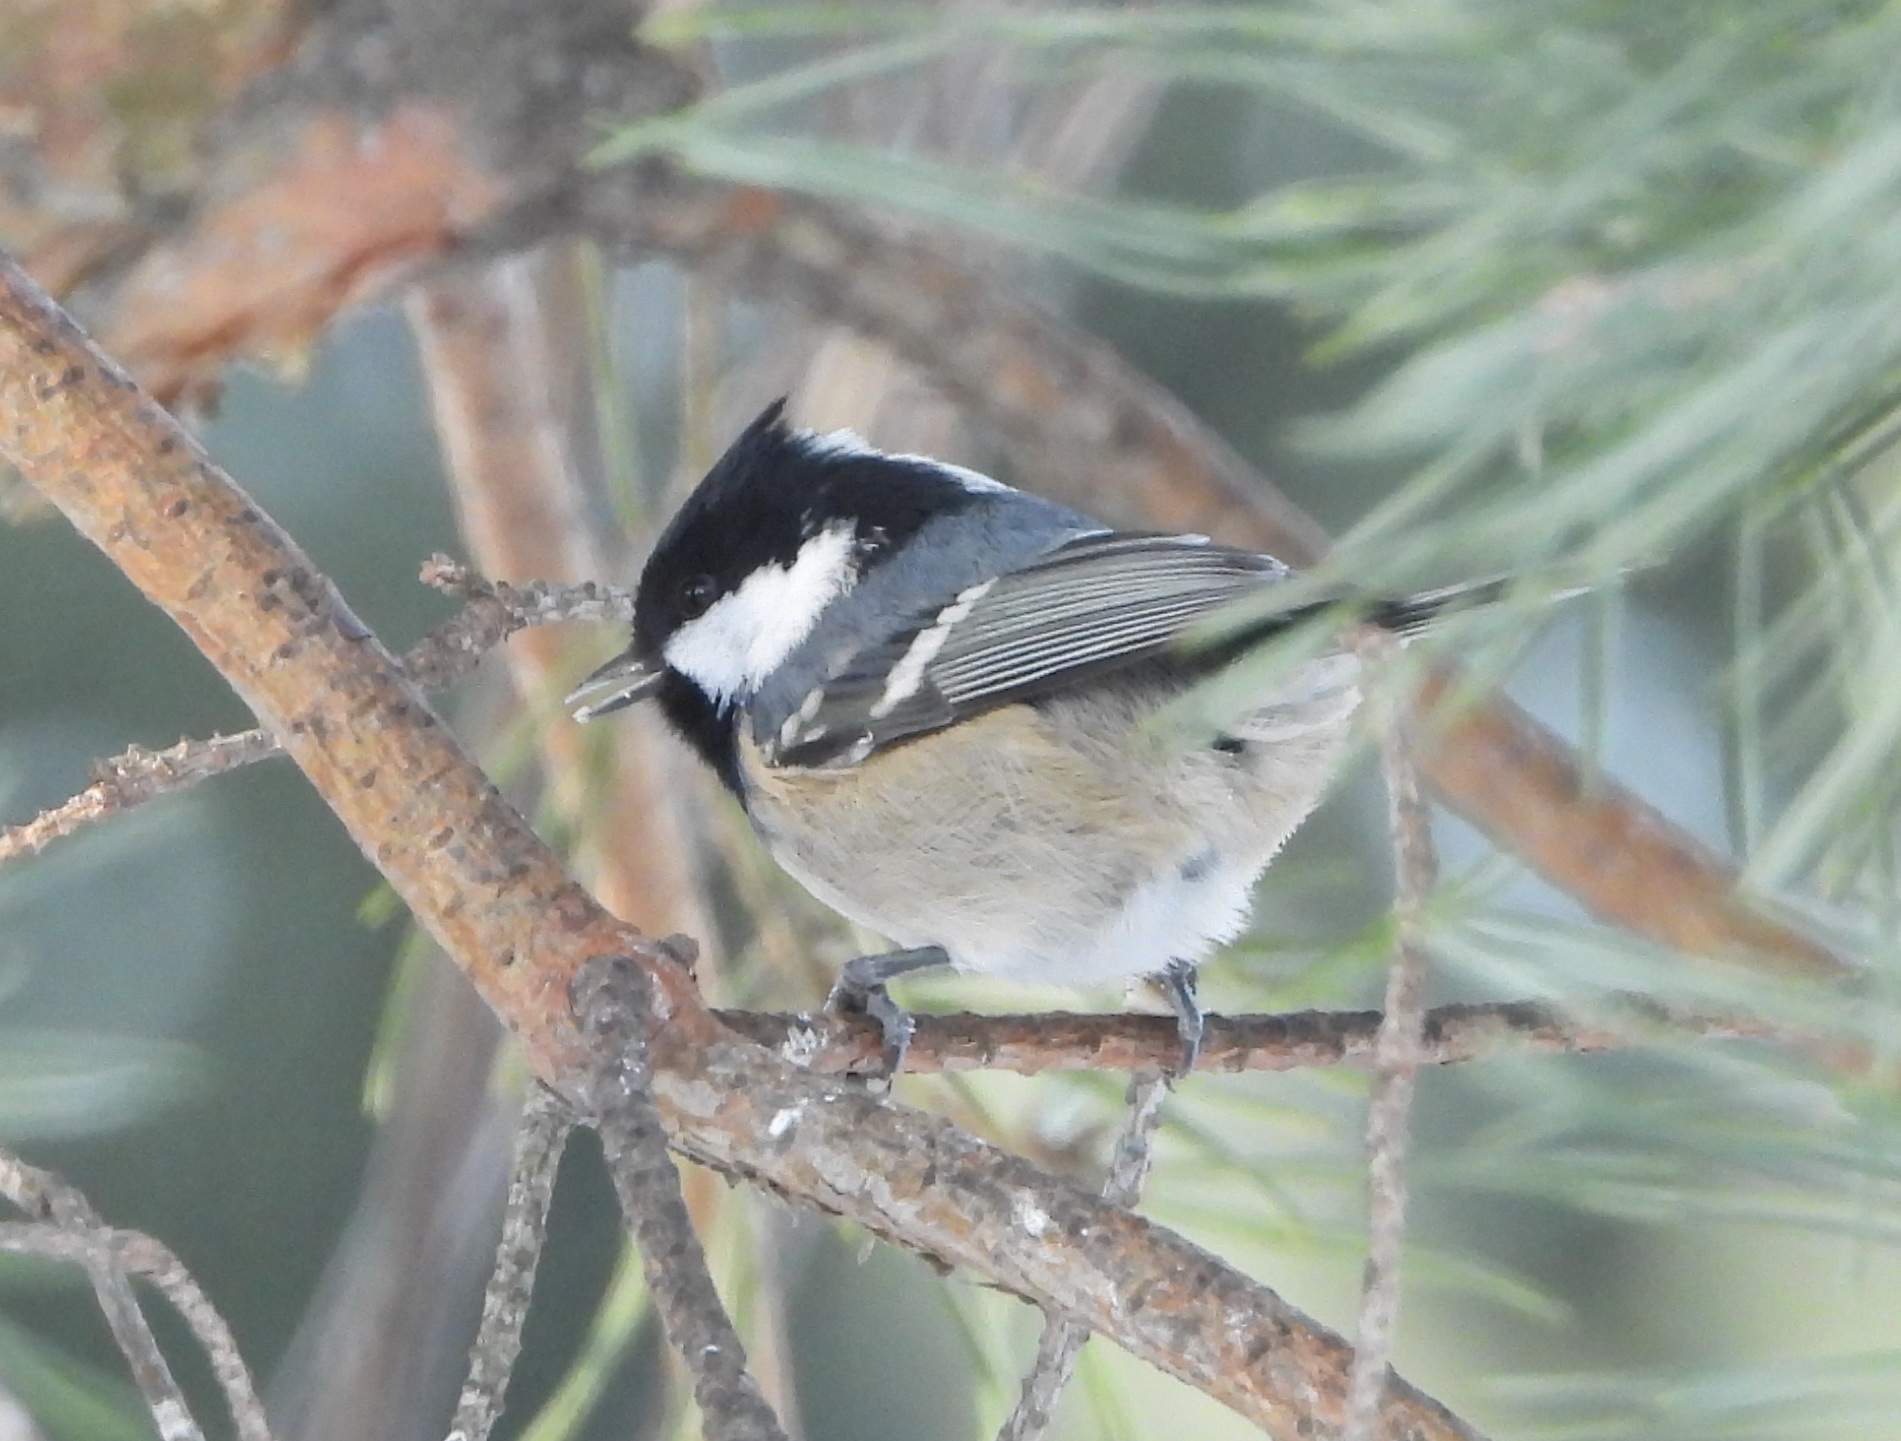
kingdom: Animalia
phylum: Chordata
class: Aves
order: Passeriformes
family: Paridae
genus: Periparus
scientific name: Periparus ater
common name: Coal tit
